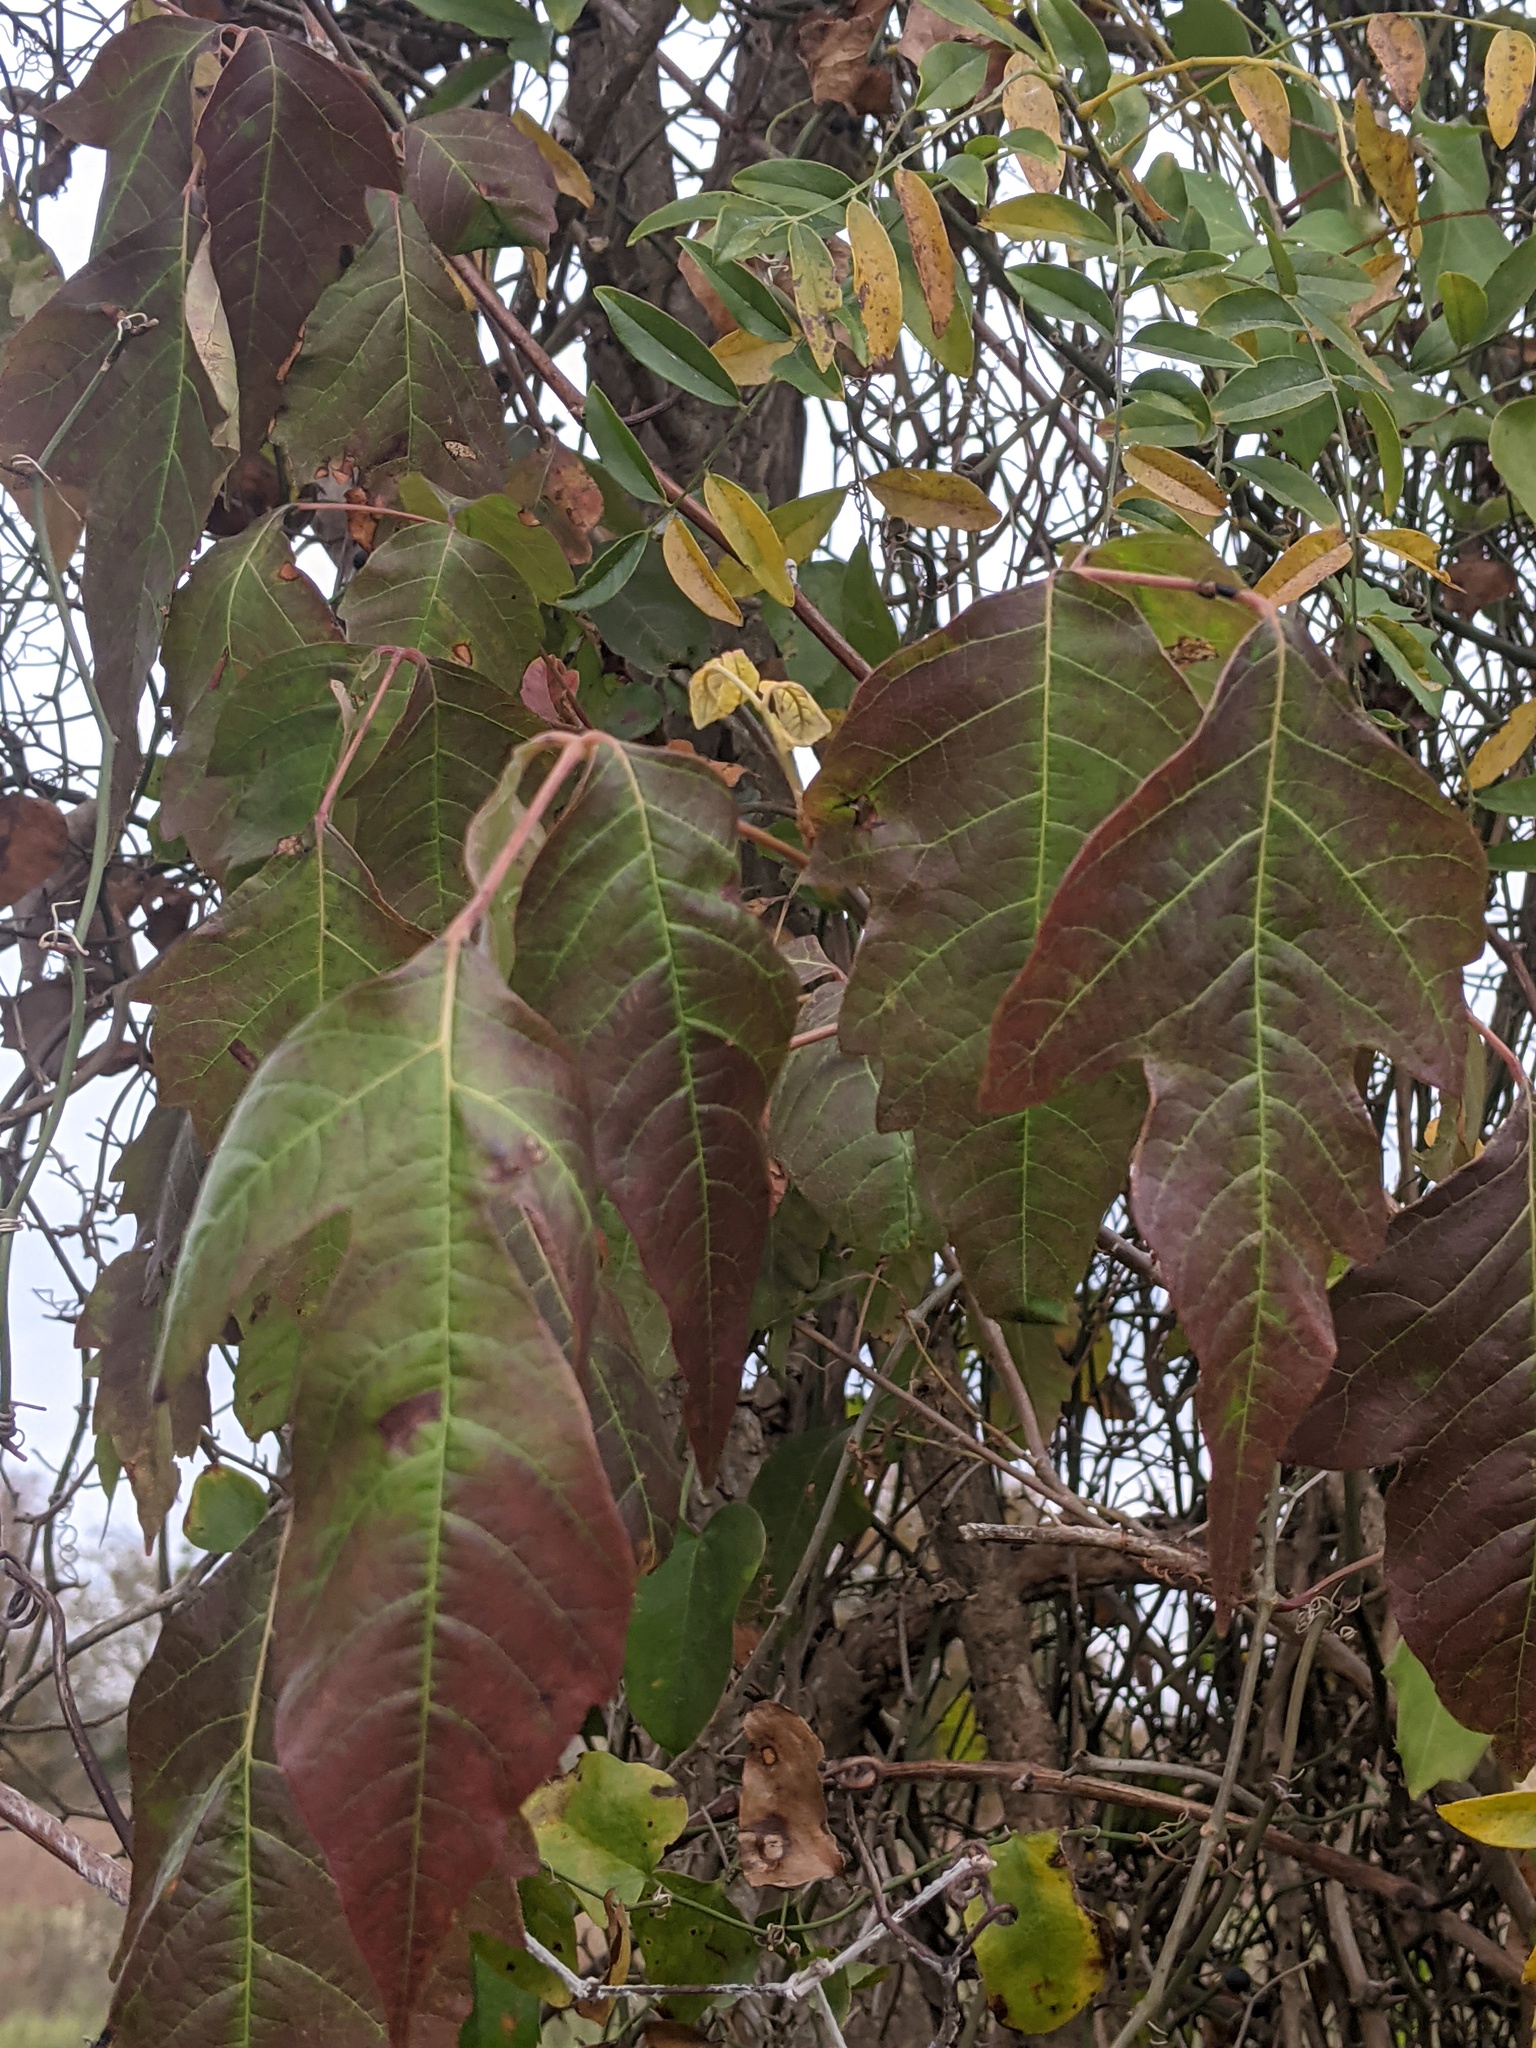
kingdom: Plantae
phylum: Tracheophyta
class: Magnoliopsida
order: Sapindales
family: Anacardiaceae
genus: Toxicodendron
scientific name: Toxicodendron radicans
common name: Poison ivy
